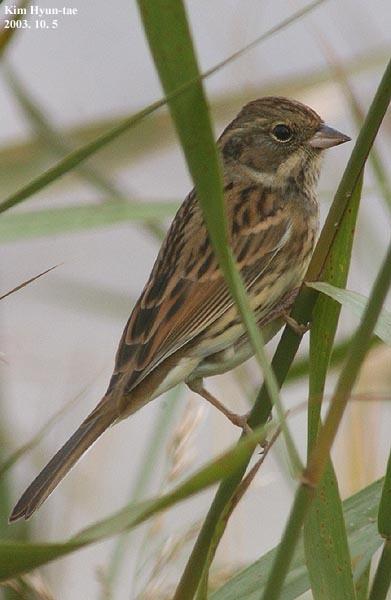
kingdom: Animalia
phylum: Chordata
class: Aves
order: Passeriformes
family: Emberizidae
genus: Emberiza
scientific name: Emberiza spodocephala
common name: Black-faced bunting
